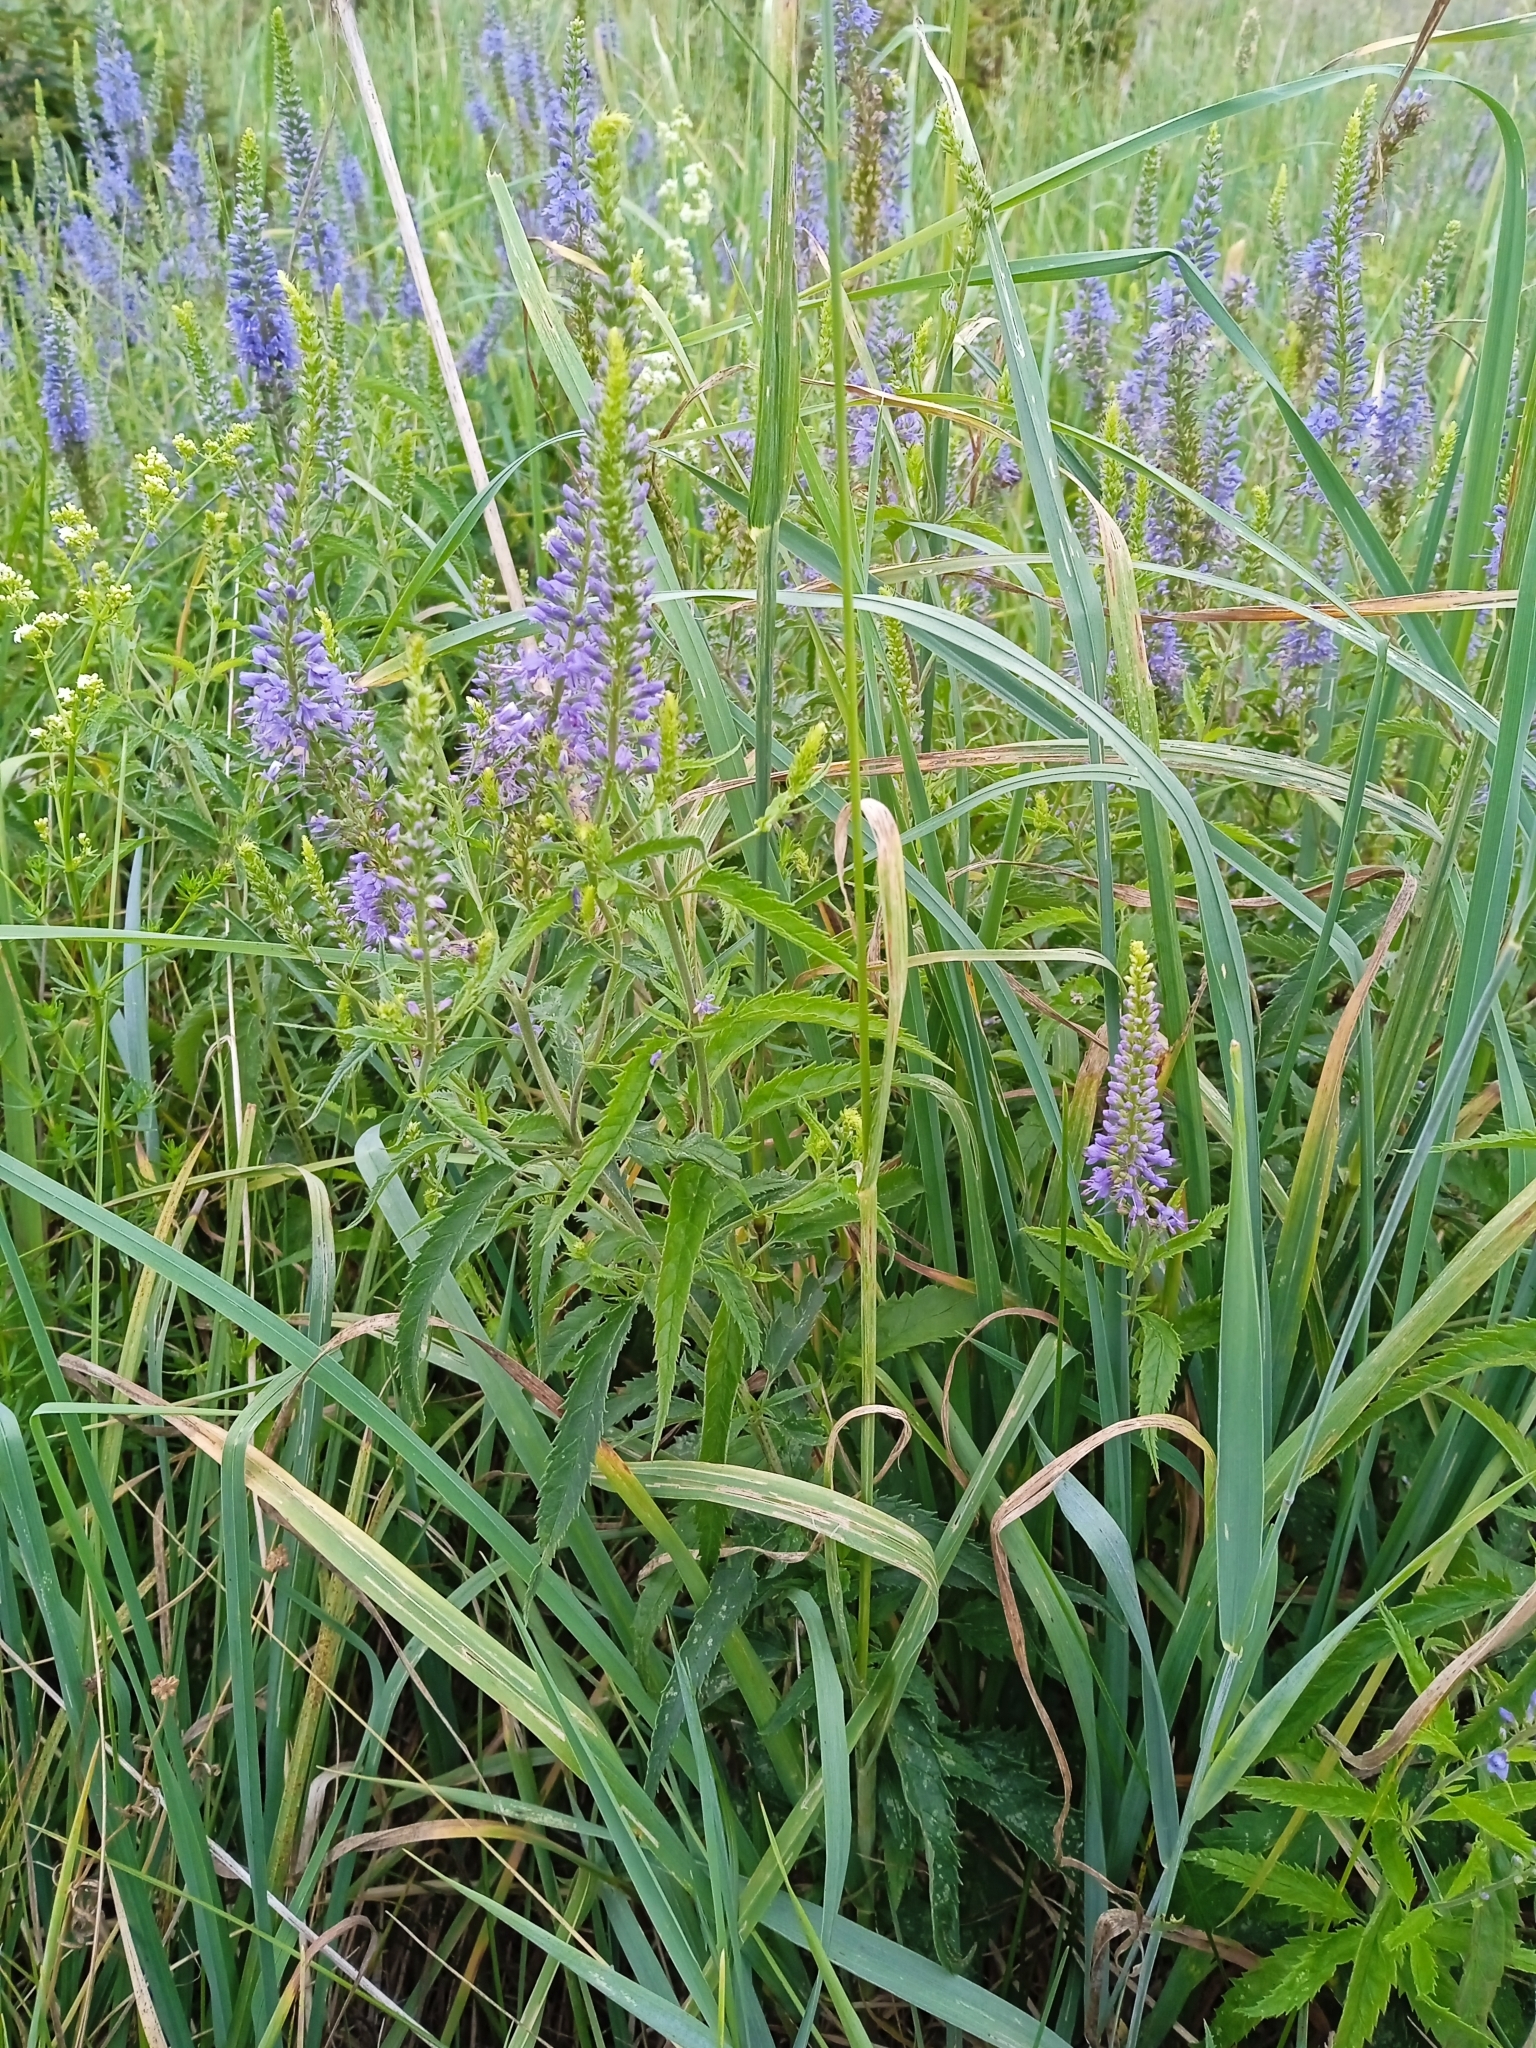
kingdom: Plantae
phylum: Tracheophyta
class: Magnoliopsida
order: Lamiales
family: Plantaginaceae
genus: Veronica
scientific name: Veronica longifolia
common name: Garden speedwell
